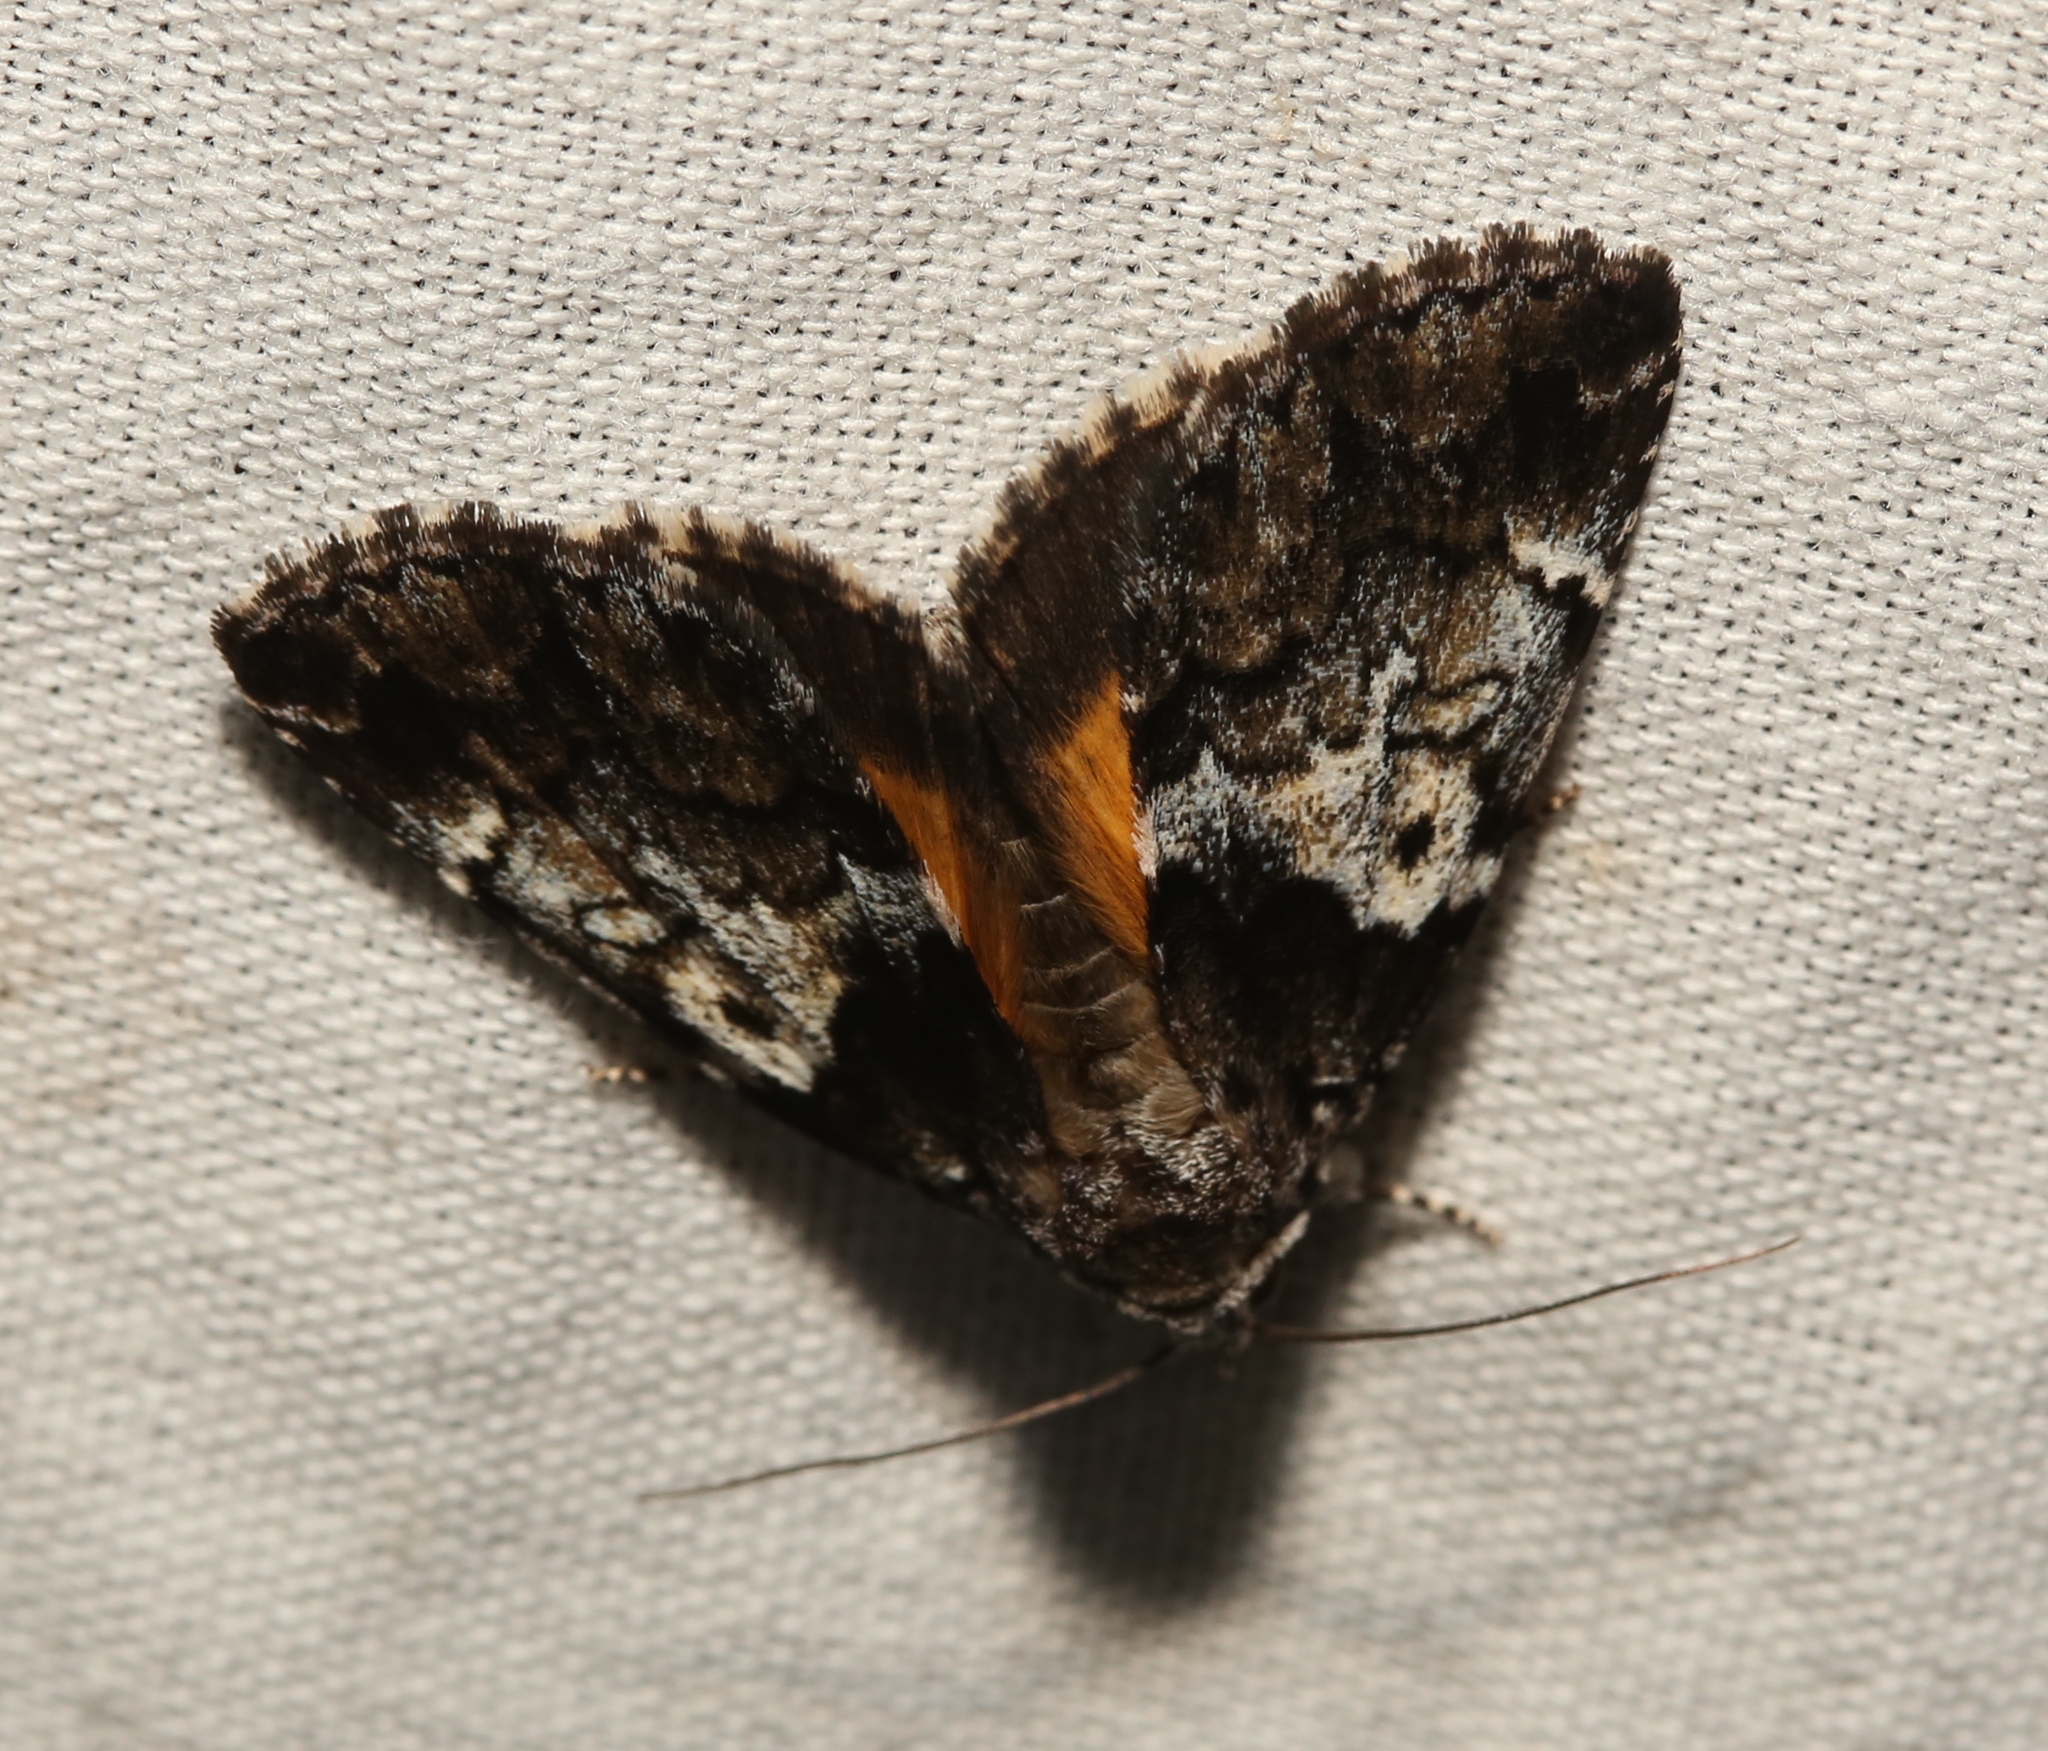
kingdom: Animalia
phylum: Arthropoda
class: Insecta
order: Lepidoptera
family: Erebidae
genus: Allotria
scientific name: Allotria elonympha
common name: False underwing
